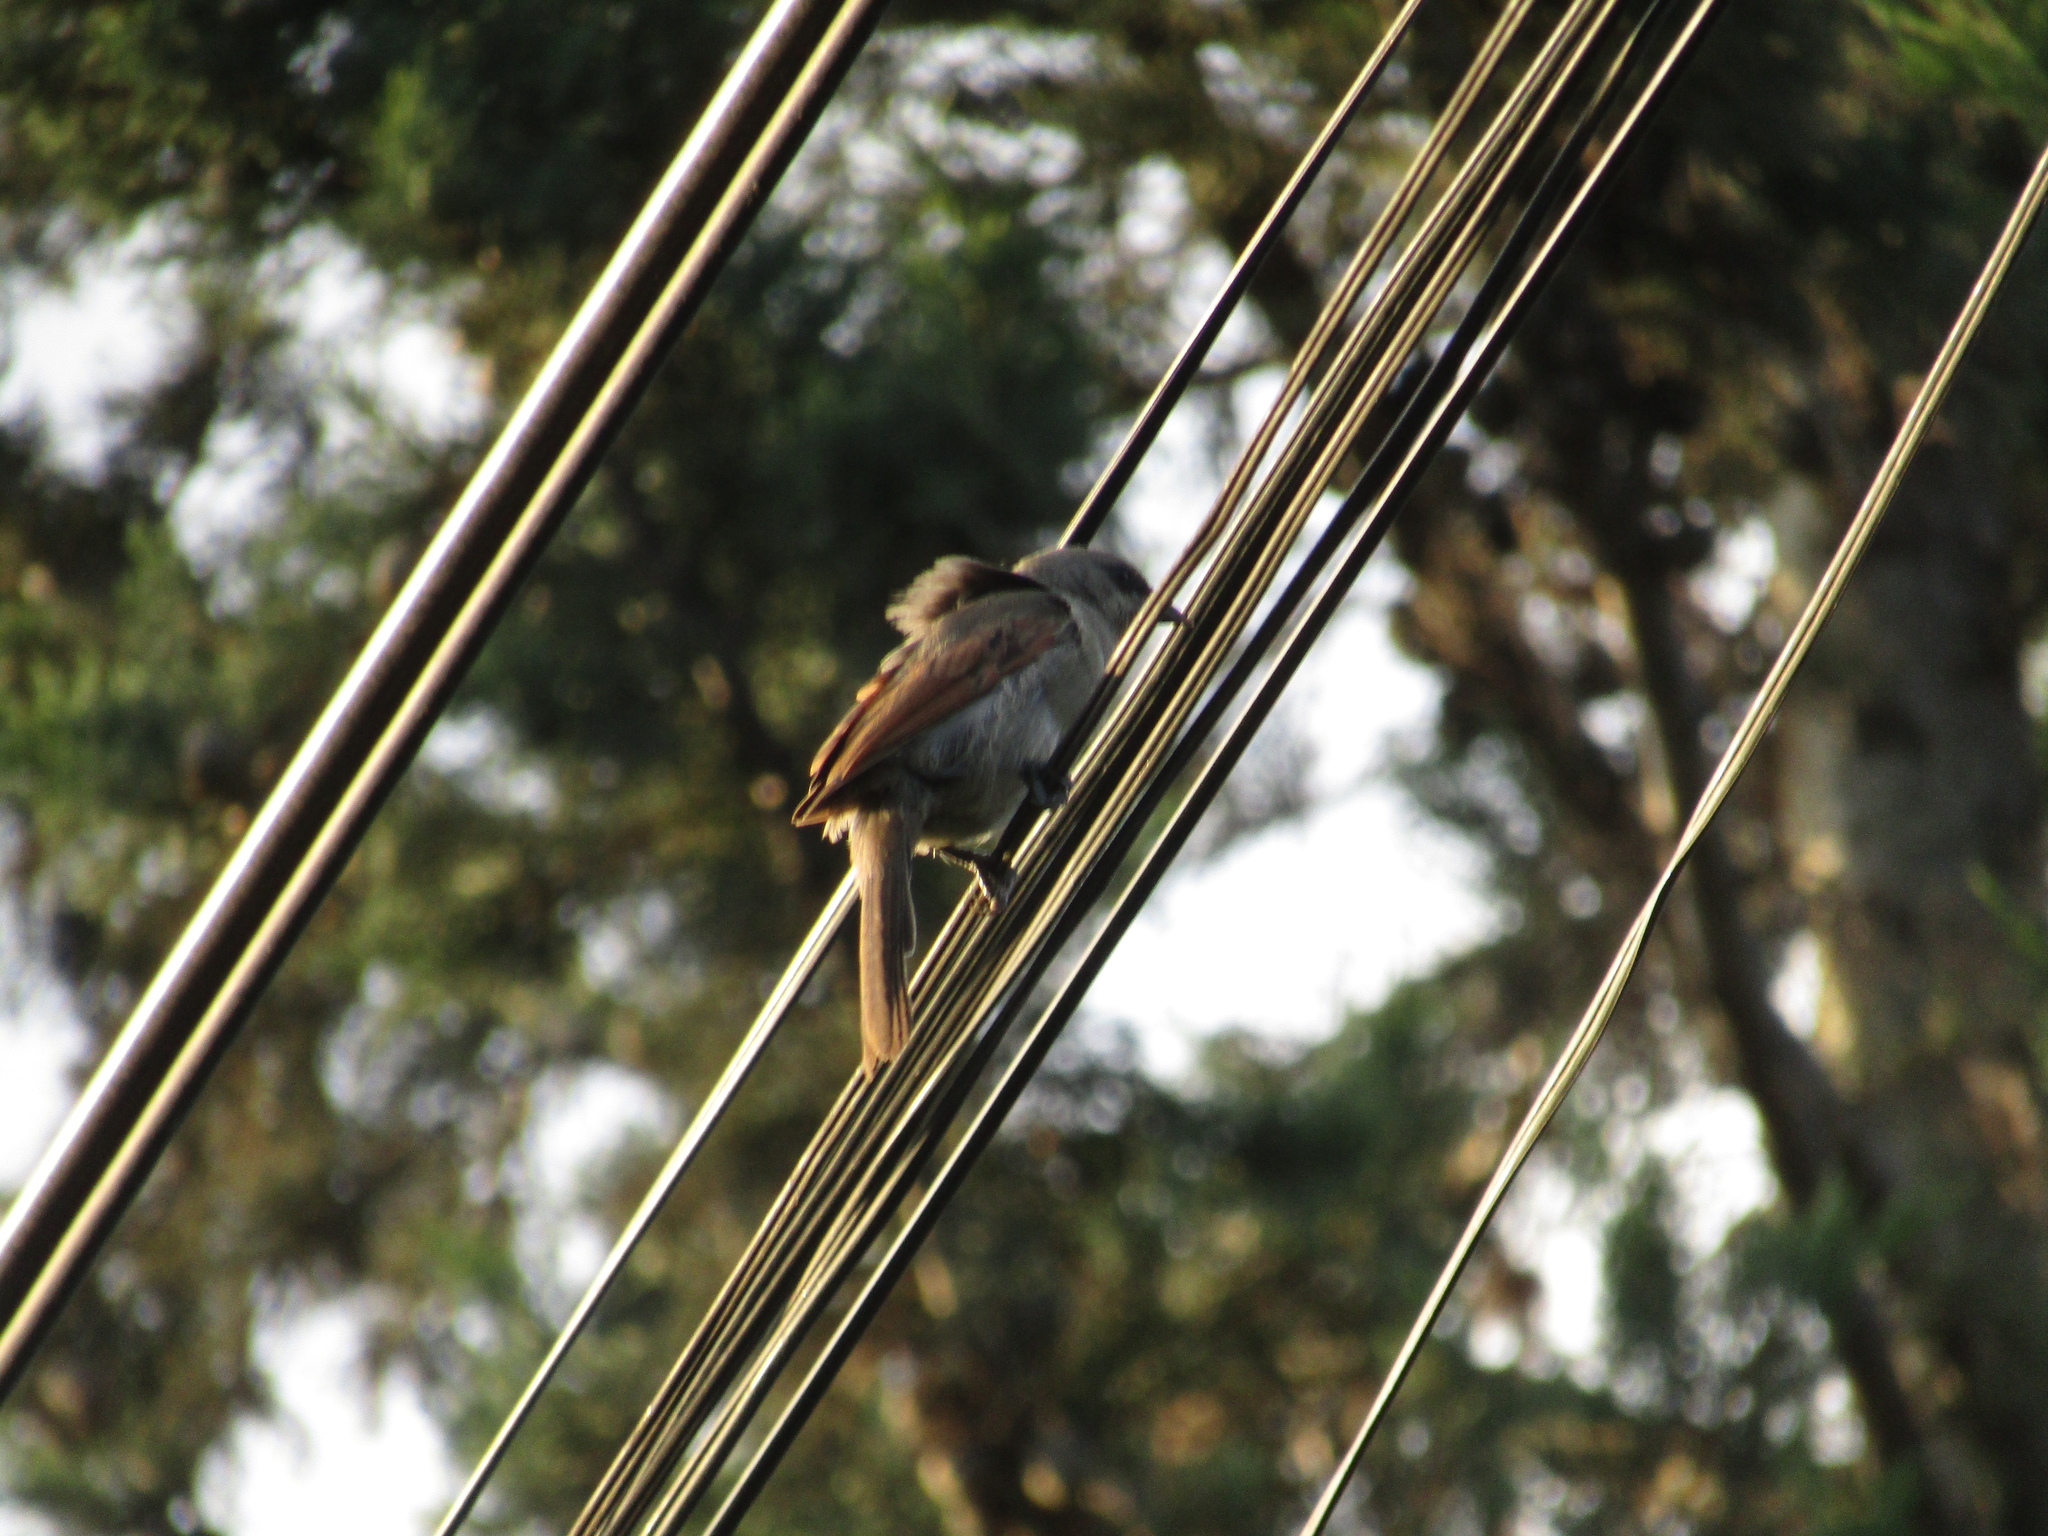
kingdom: Animalia
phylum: Chordata
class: Aves
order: Passeriformes
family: Icteridae
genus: Agelaioides
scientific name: Agelaioides badius
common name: Baywing
